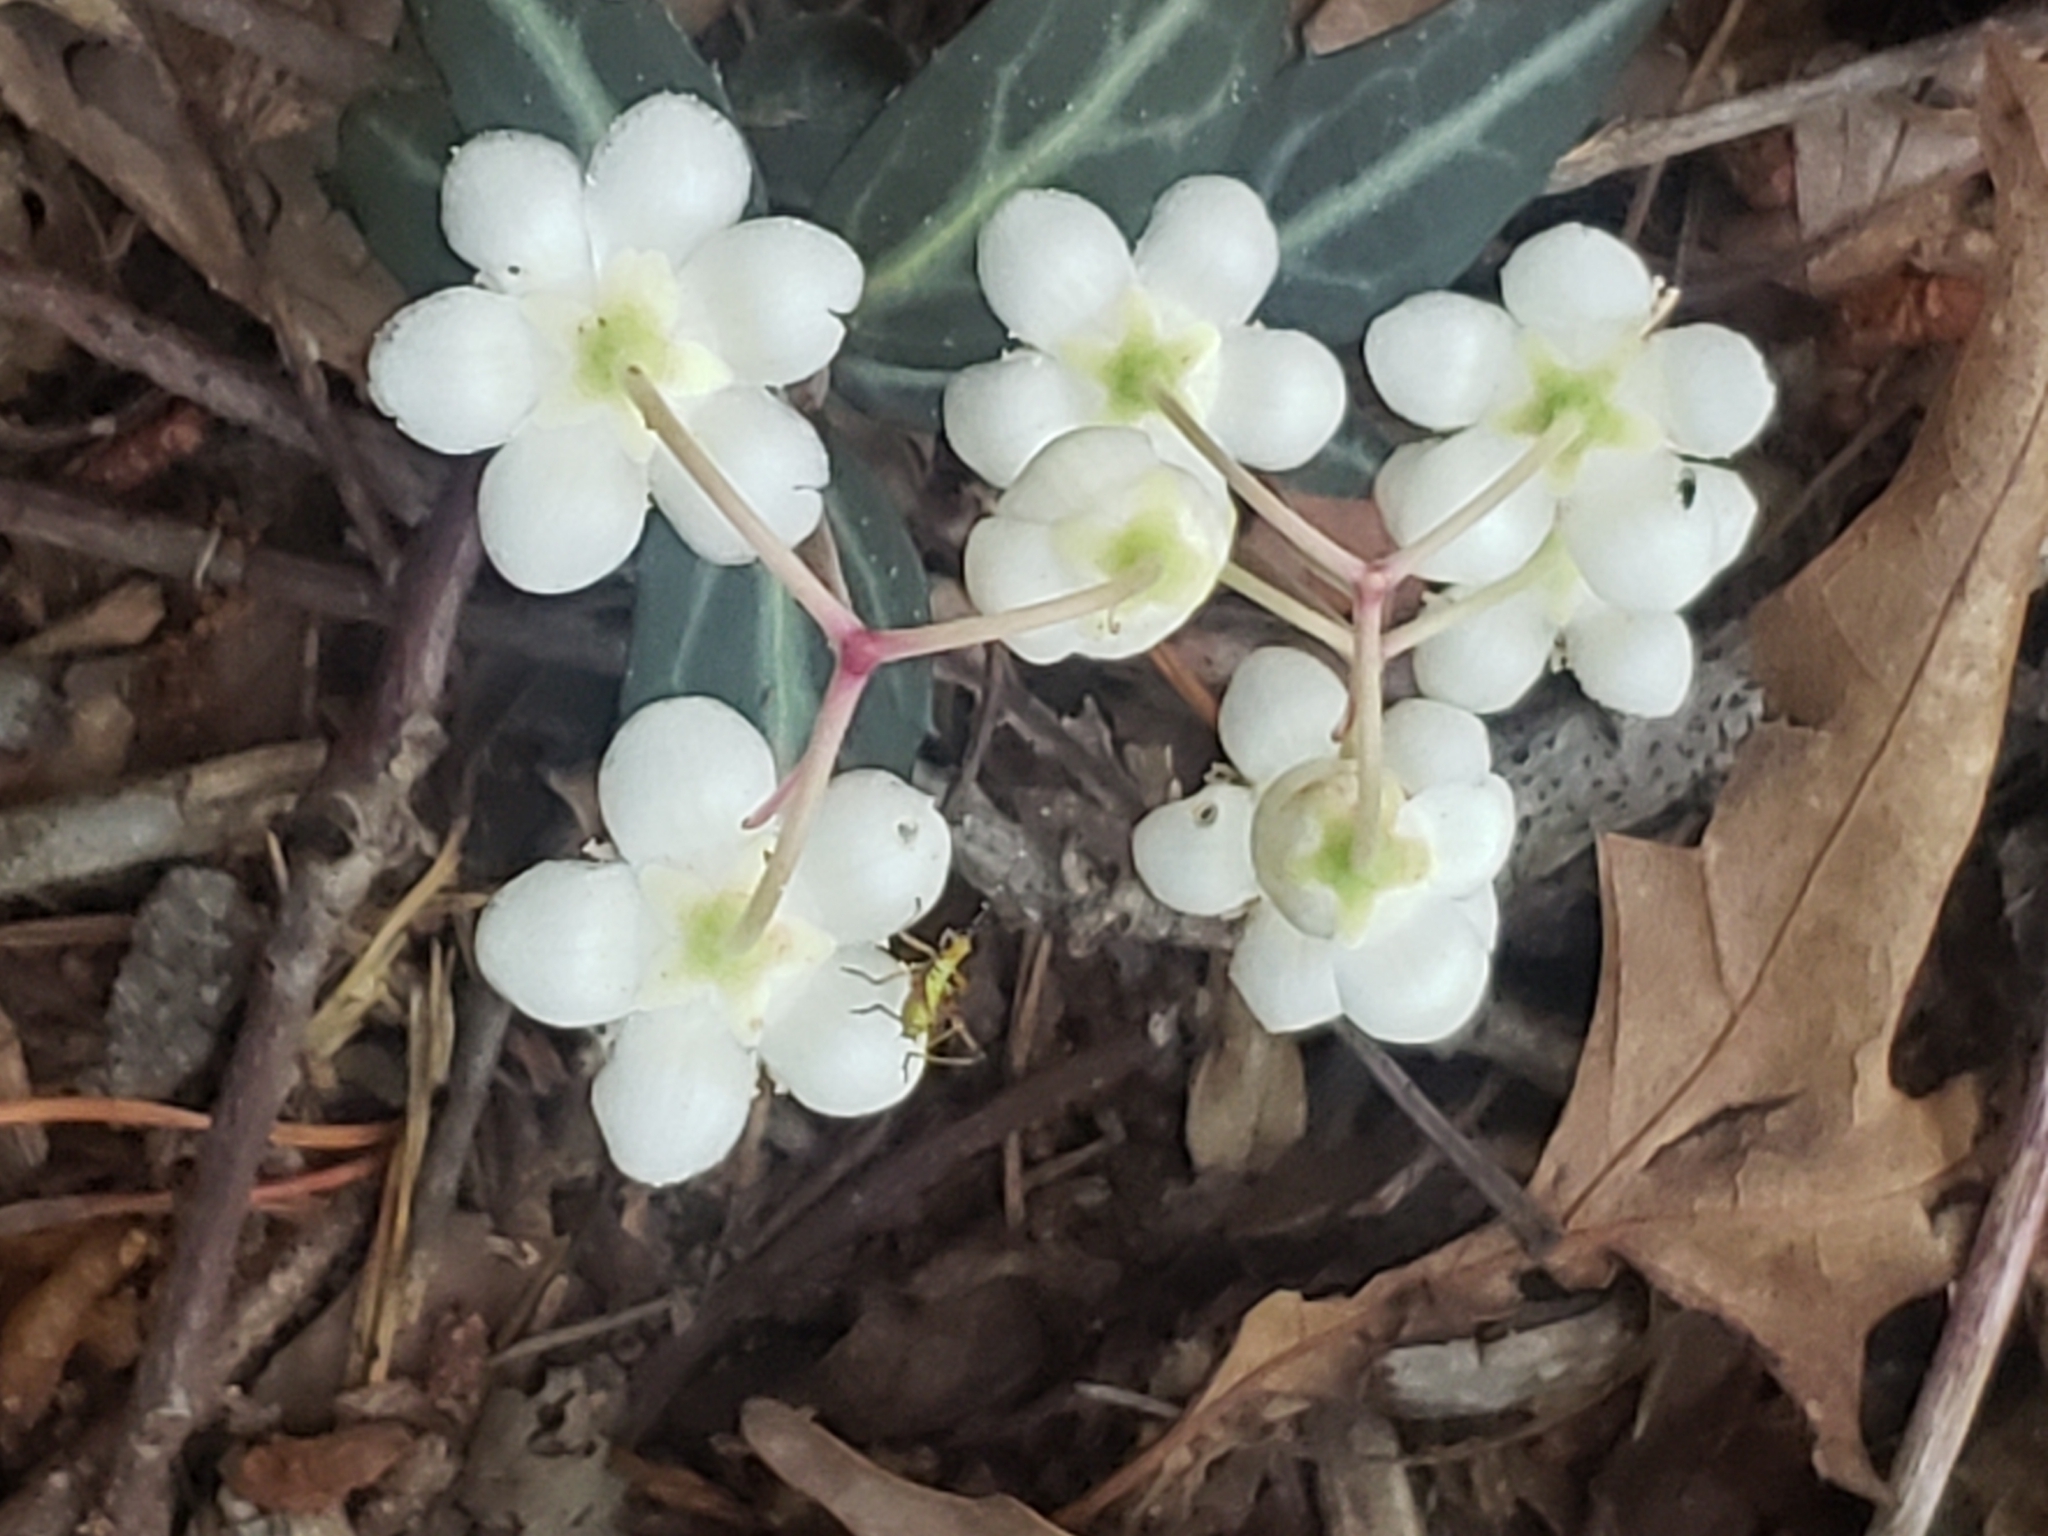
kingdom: Plantae
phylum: Tracheophyta
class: Magnoliopsida
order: Ericales
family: Ericaceae
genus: Chimaphila
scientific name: Chimaphila maculata
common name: Spotted pipsissewa
